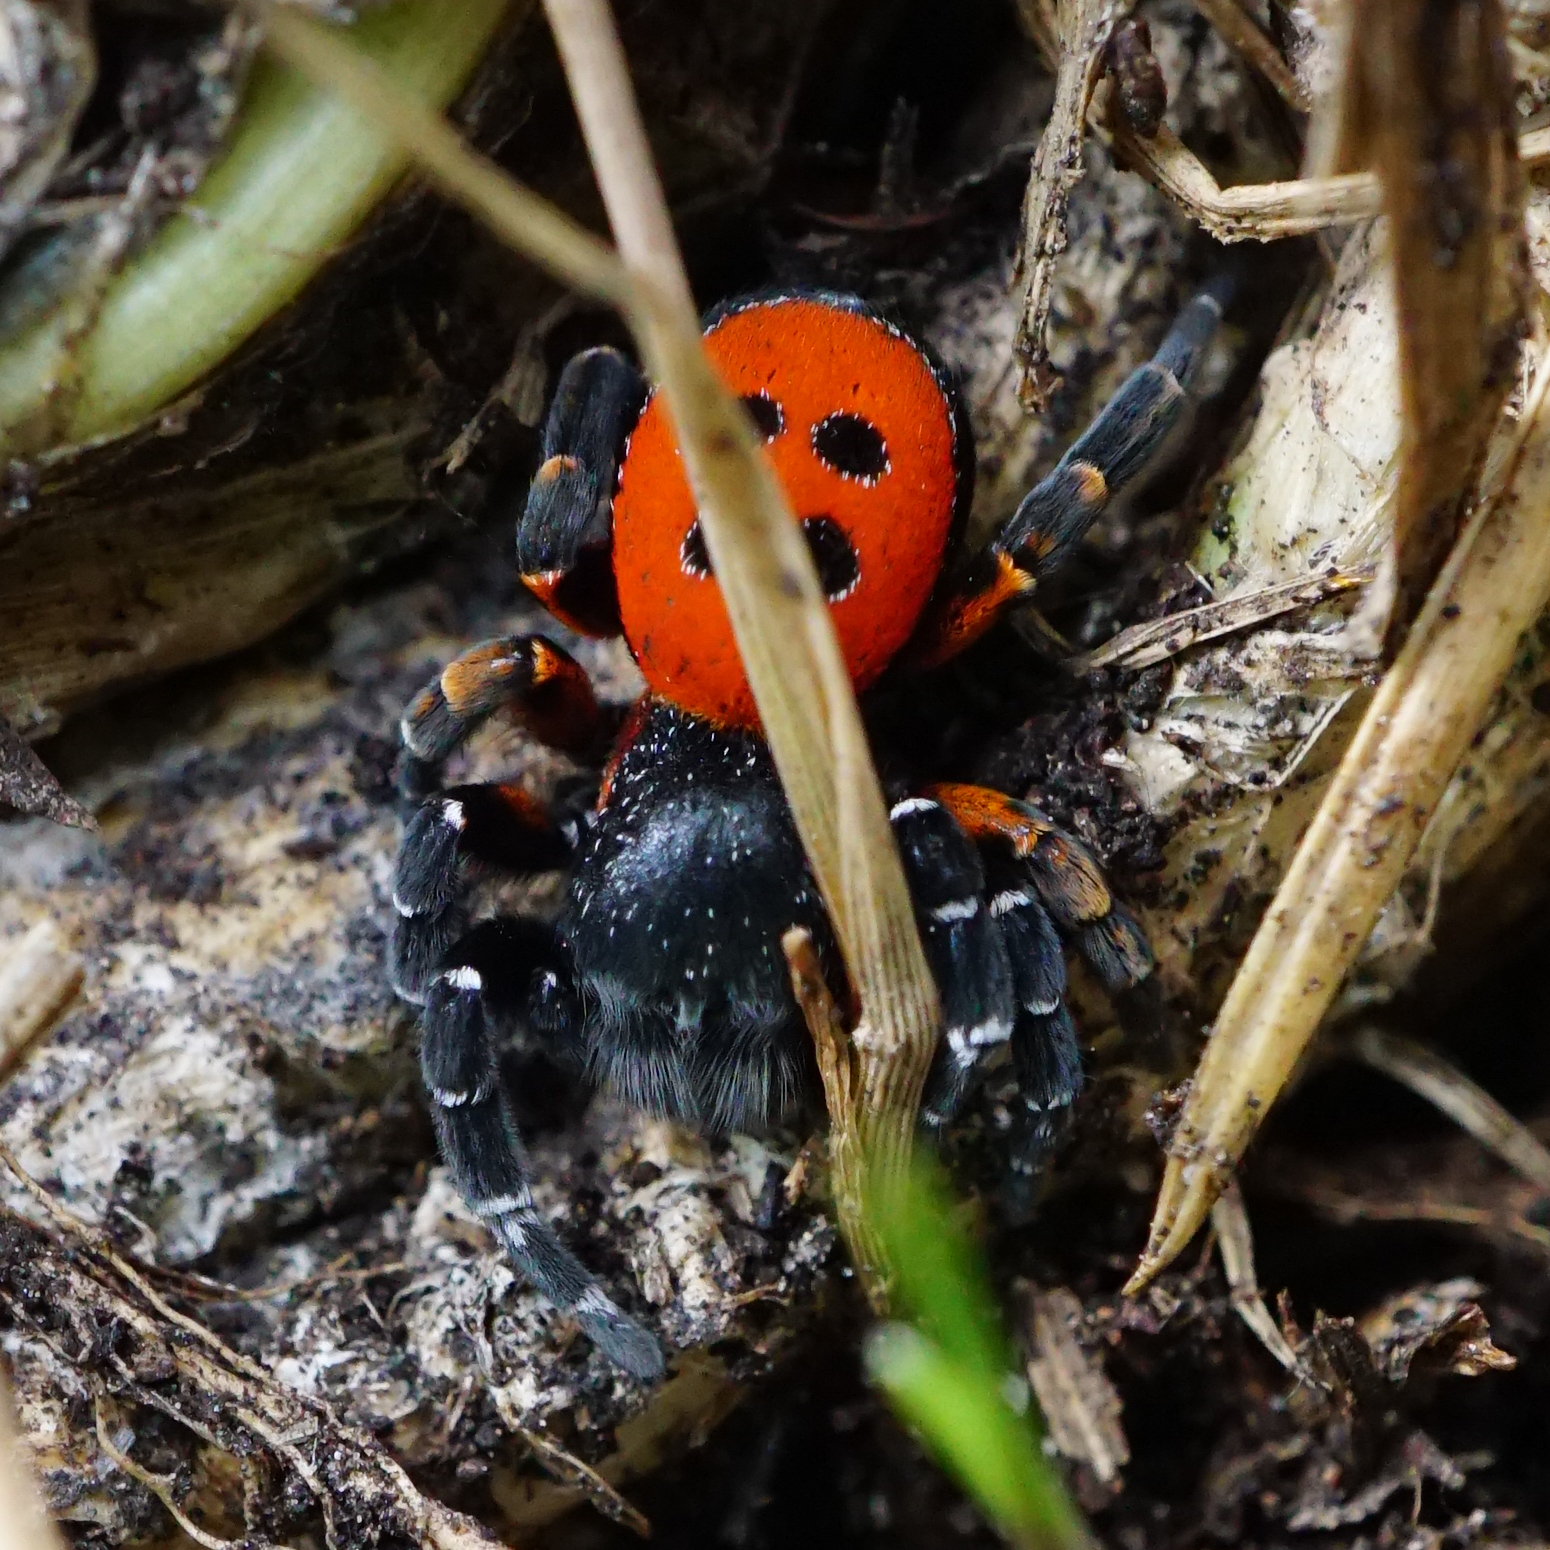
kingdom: Animalia
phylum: Arthropoda
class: Arachnida
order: Araneae
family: Eresidae
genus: Eresus
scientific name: Eresus kollari
